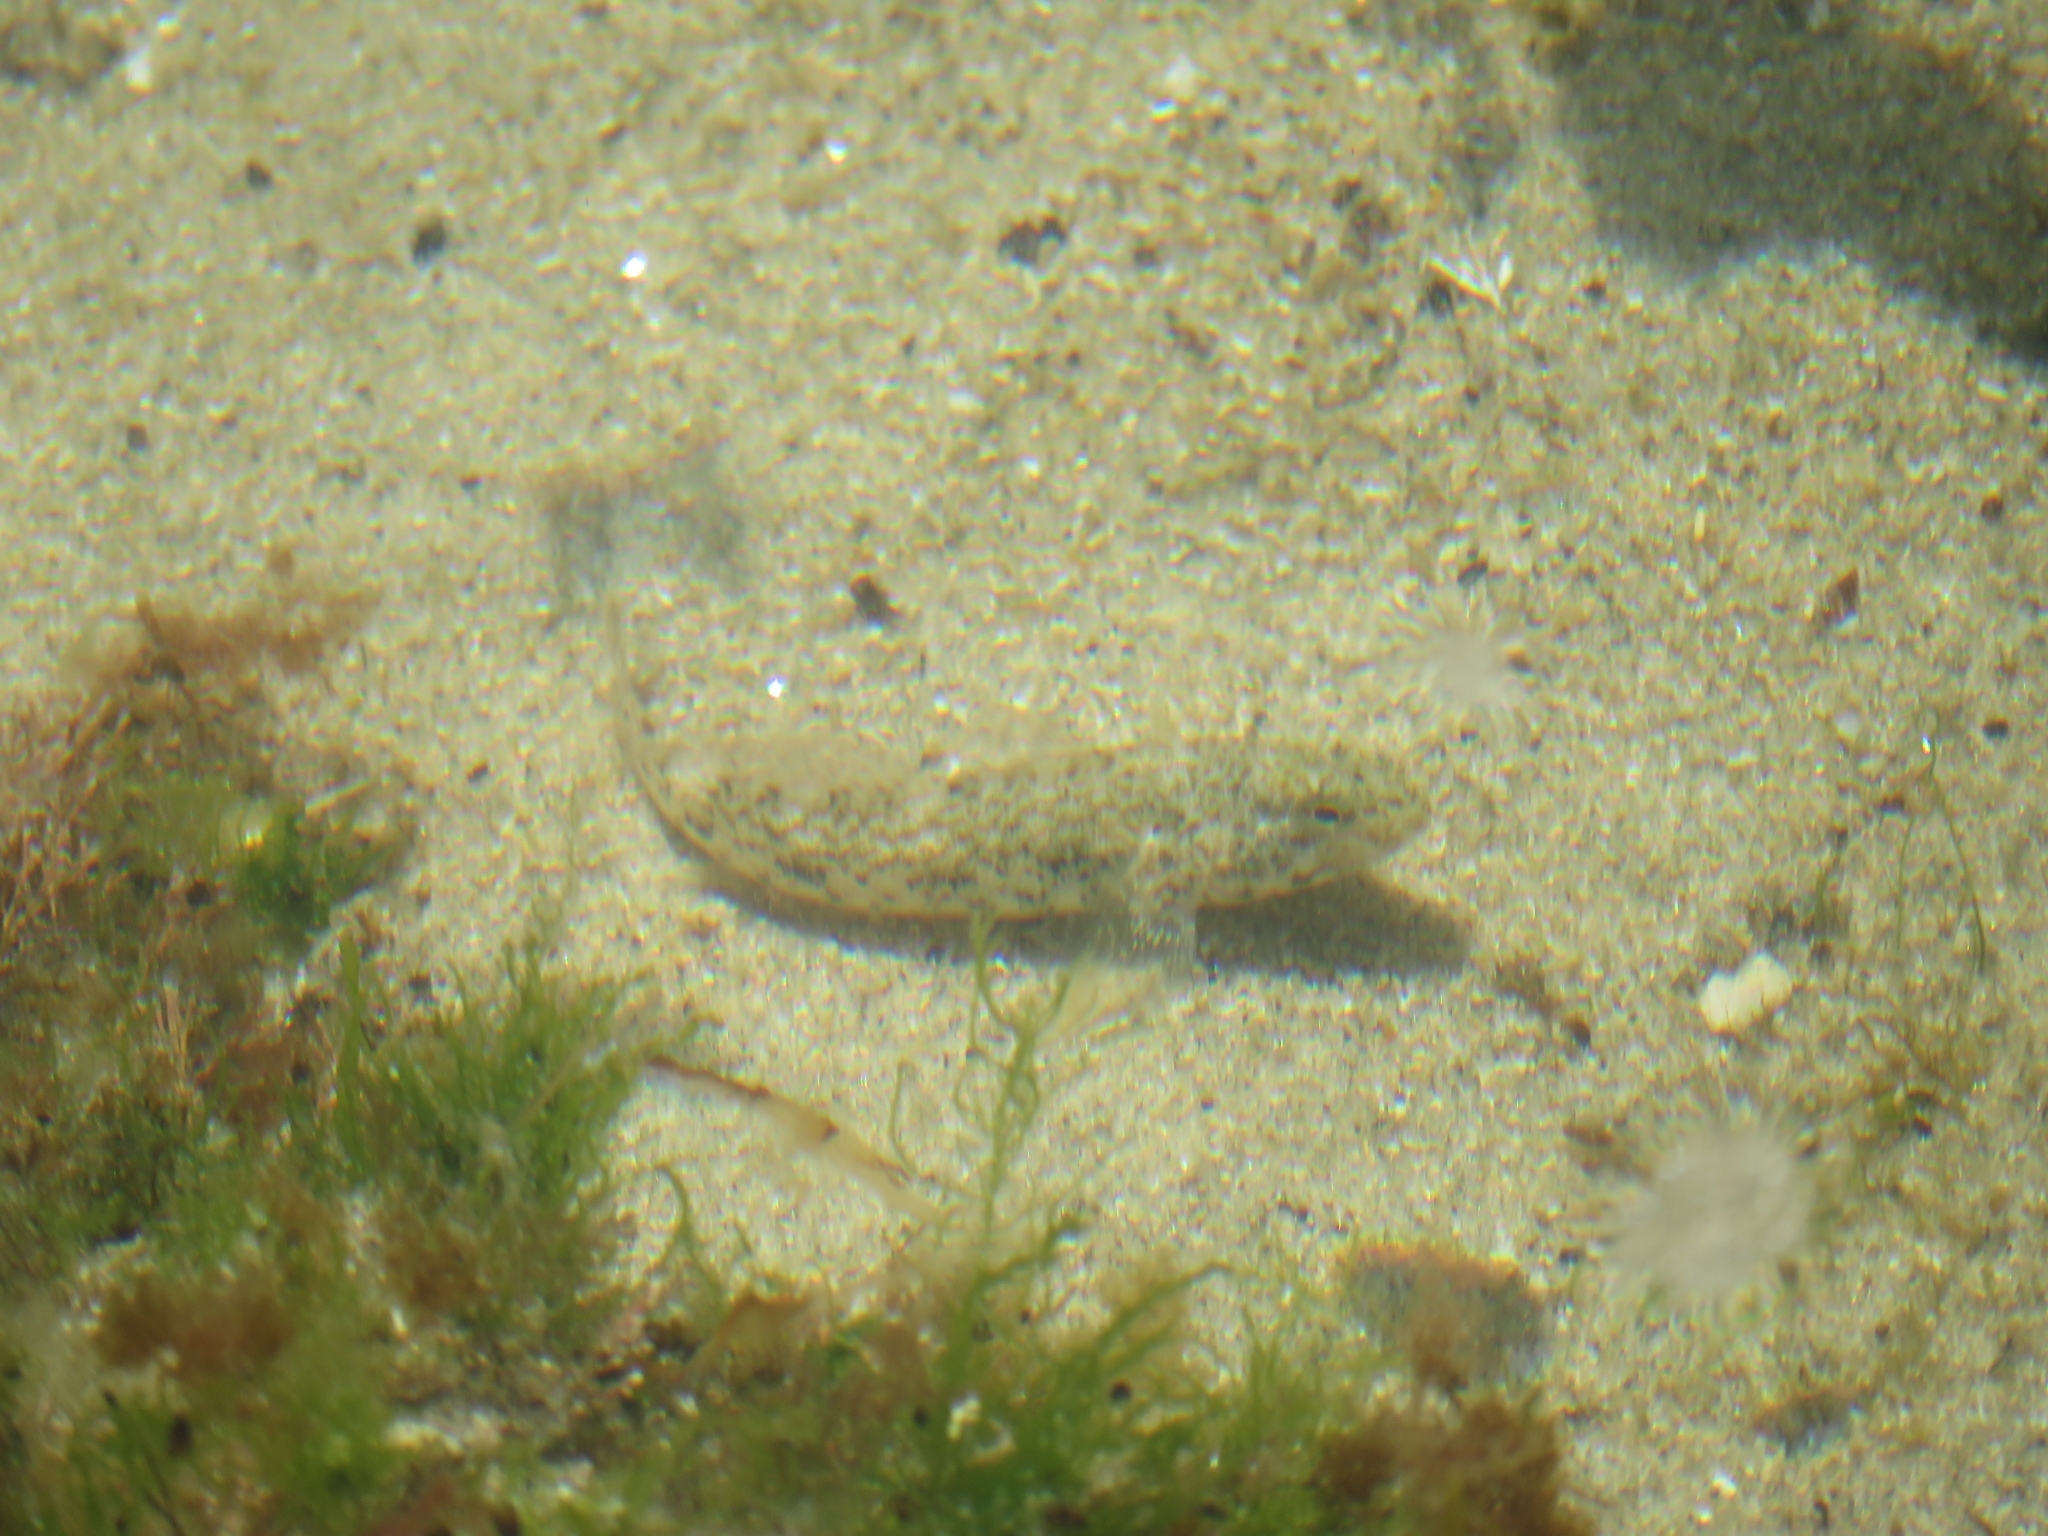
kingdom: Animalia
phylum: Chordata
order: Perciformes
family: Gobiidae
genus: Gobius
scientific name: Gobius cobitis
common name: Giant goby
